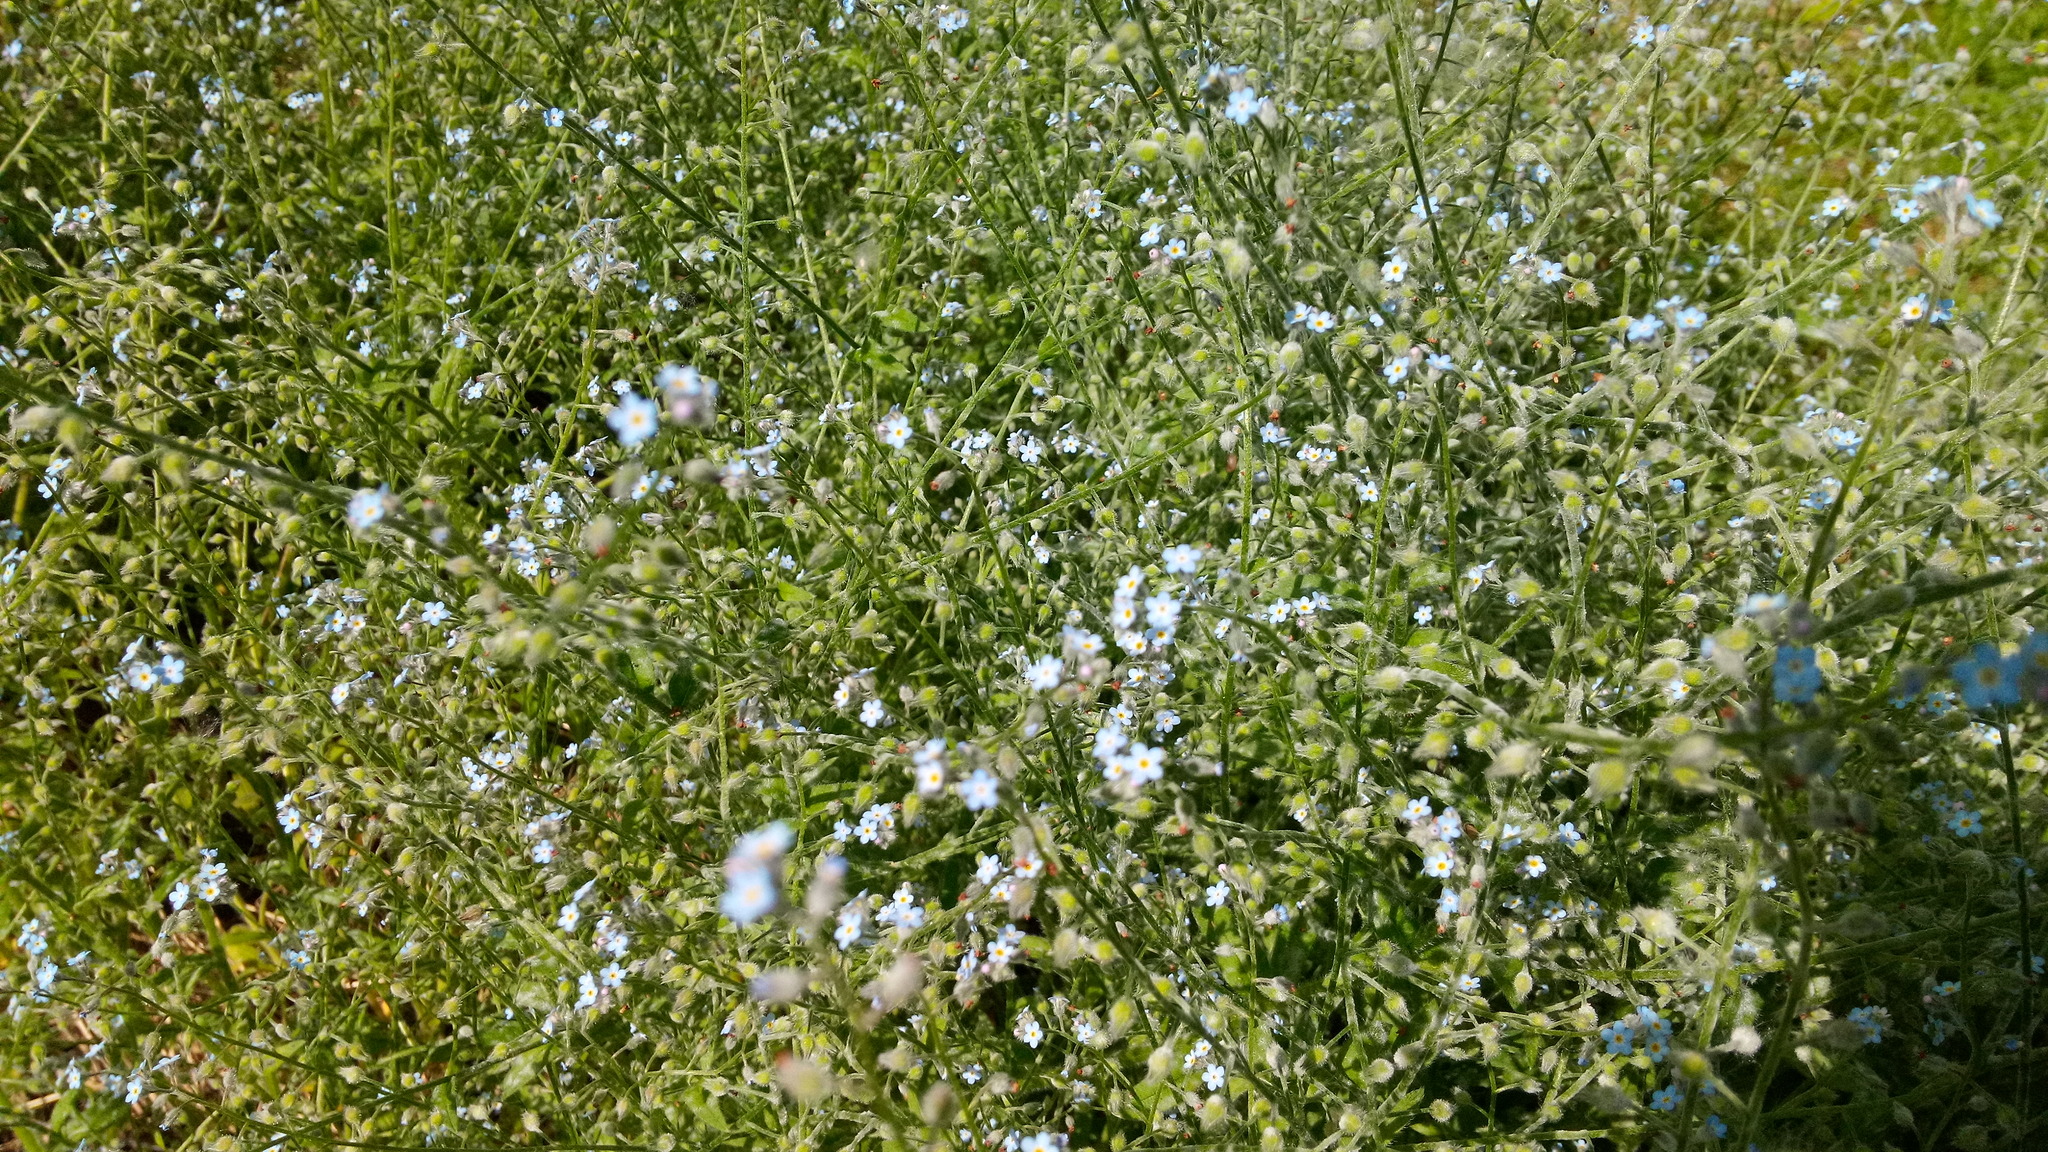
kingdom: Plantae
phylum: Tracheophyta
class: Magnoliopsida
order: Boraginales
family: Boraginaceae
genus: Myosotis
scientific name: Myosotis arvensis
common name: Field forget-me-not
